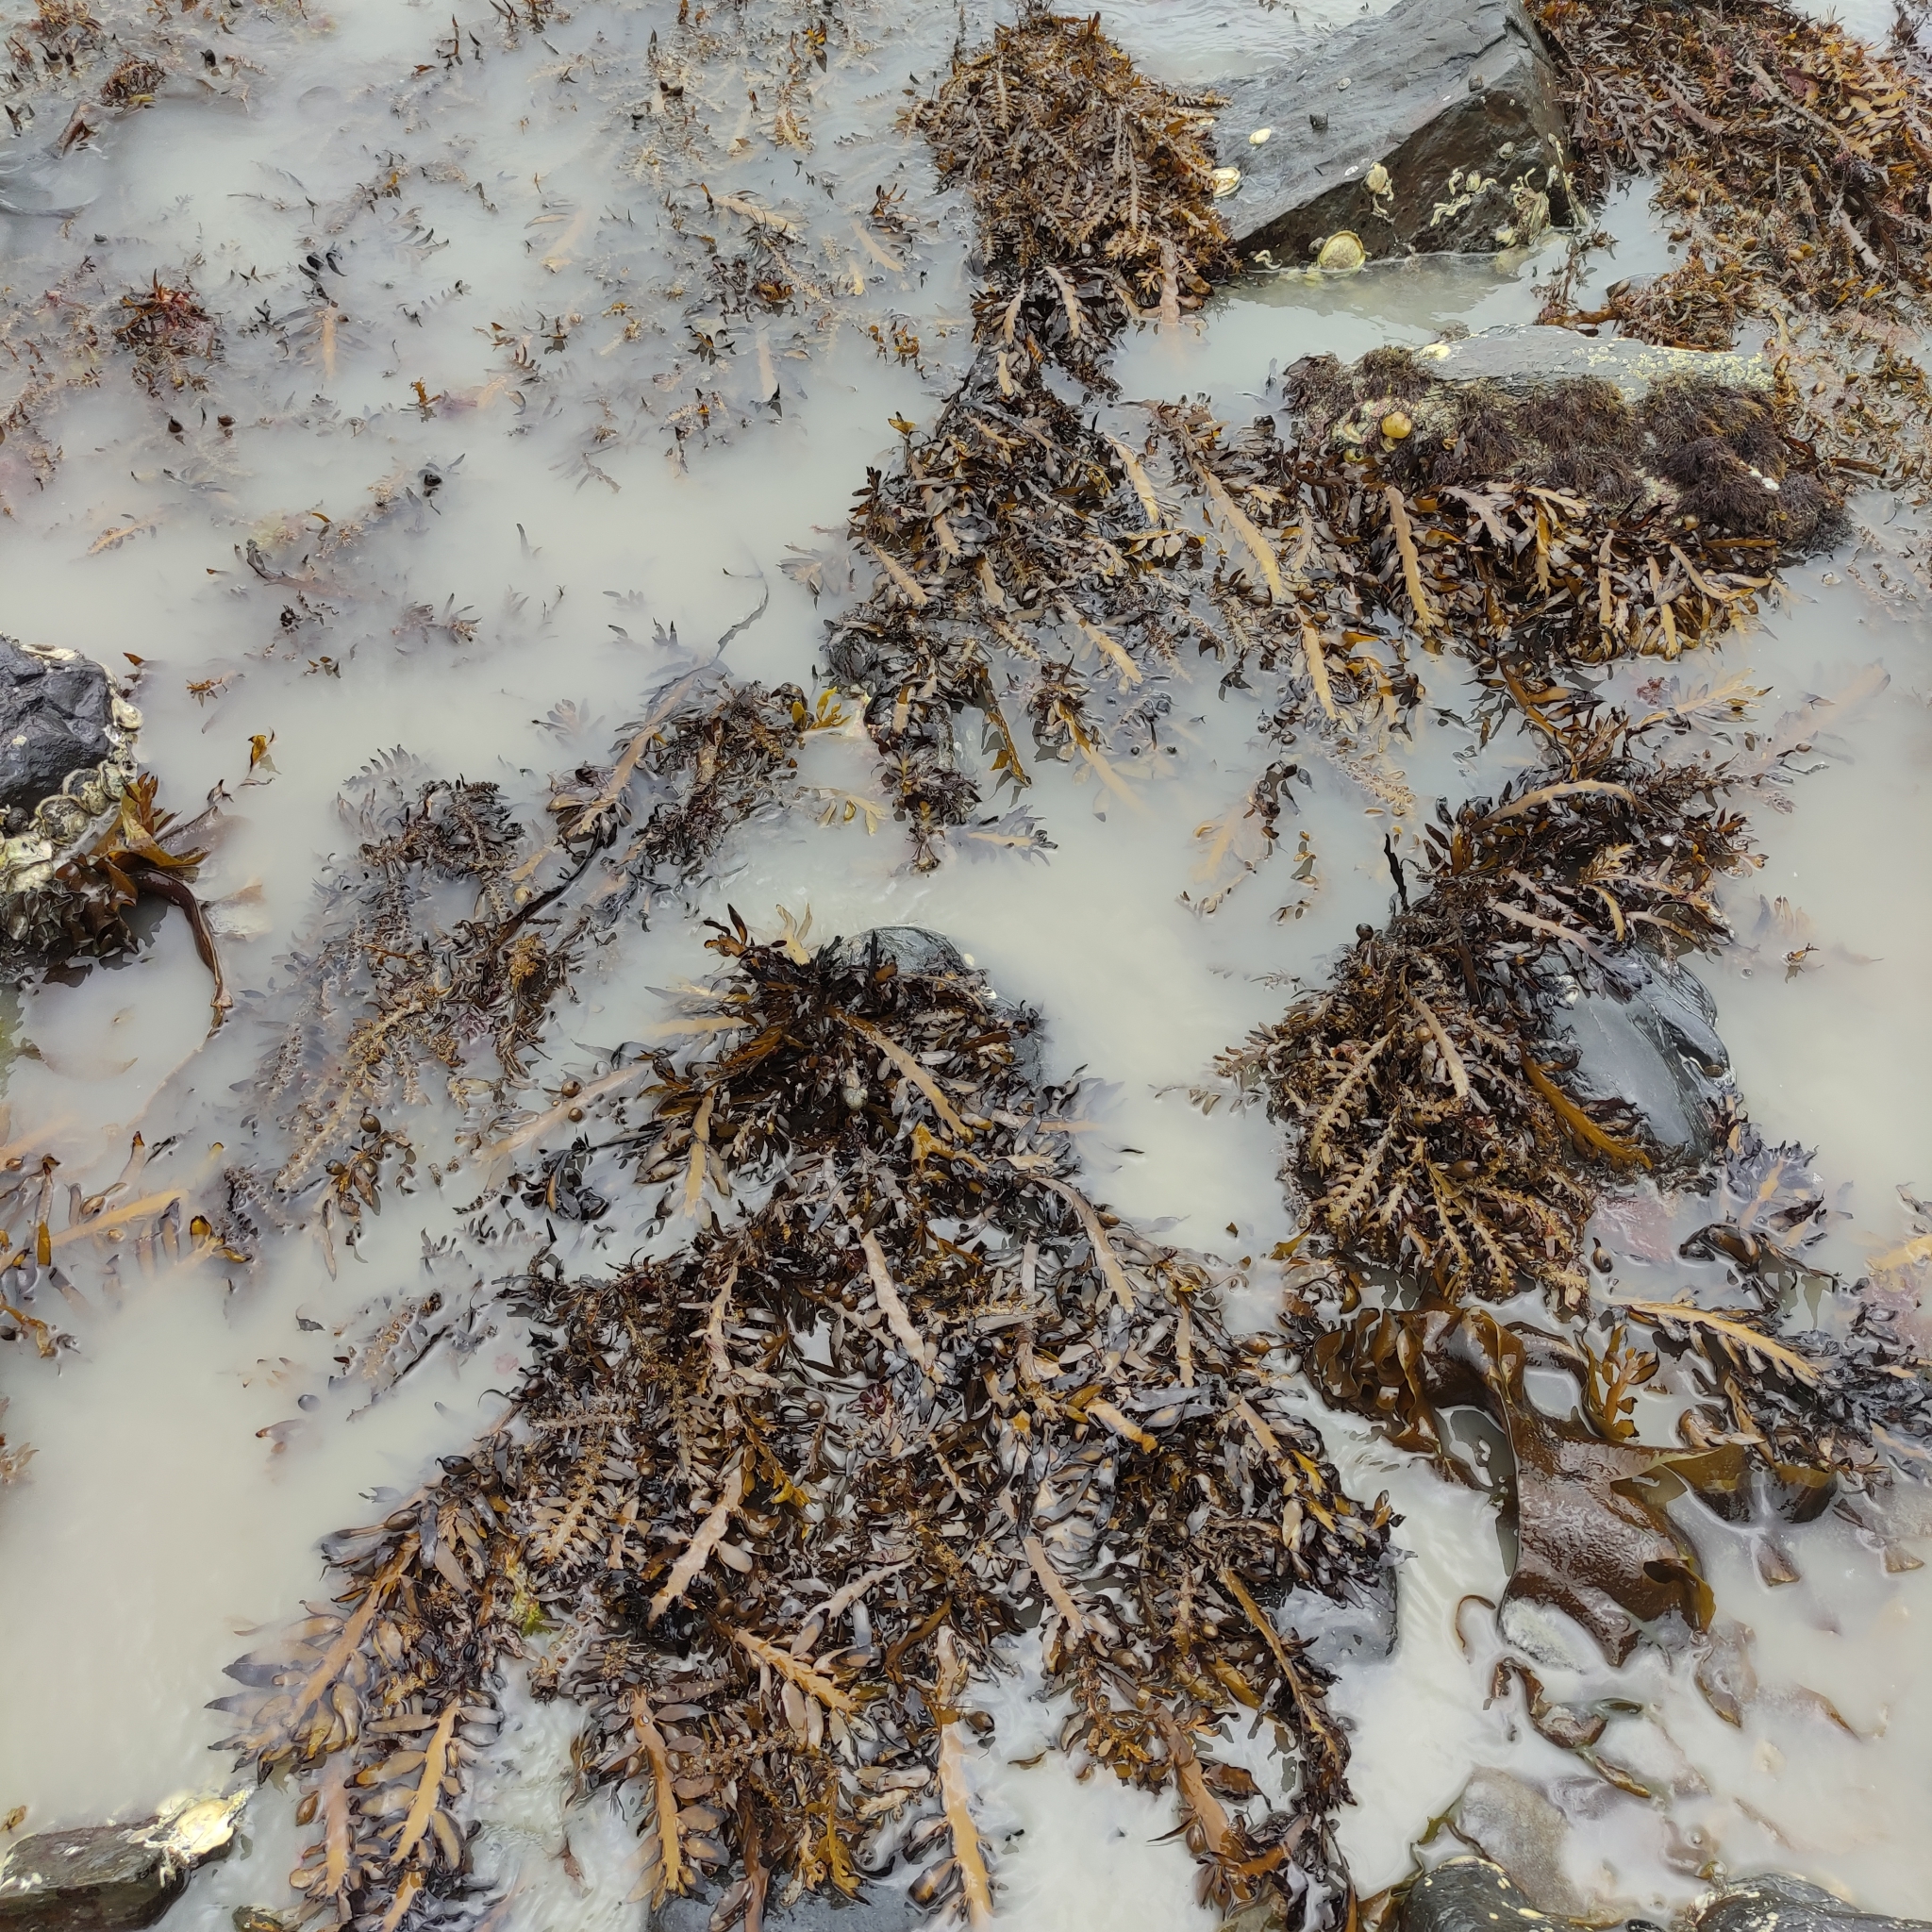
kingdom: Chromista
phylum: Ochrophyta
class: Phaeophyceae
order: Fucales
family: Sargassaceae
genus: Carpophyllum
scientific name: Carpophyllum maschalocarpum
